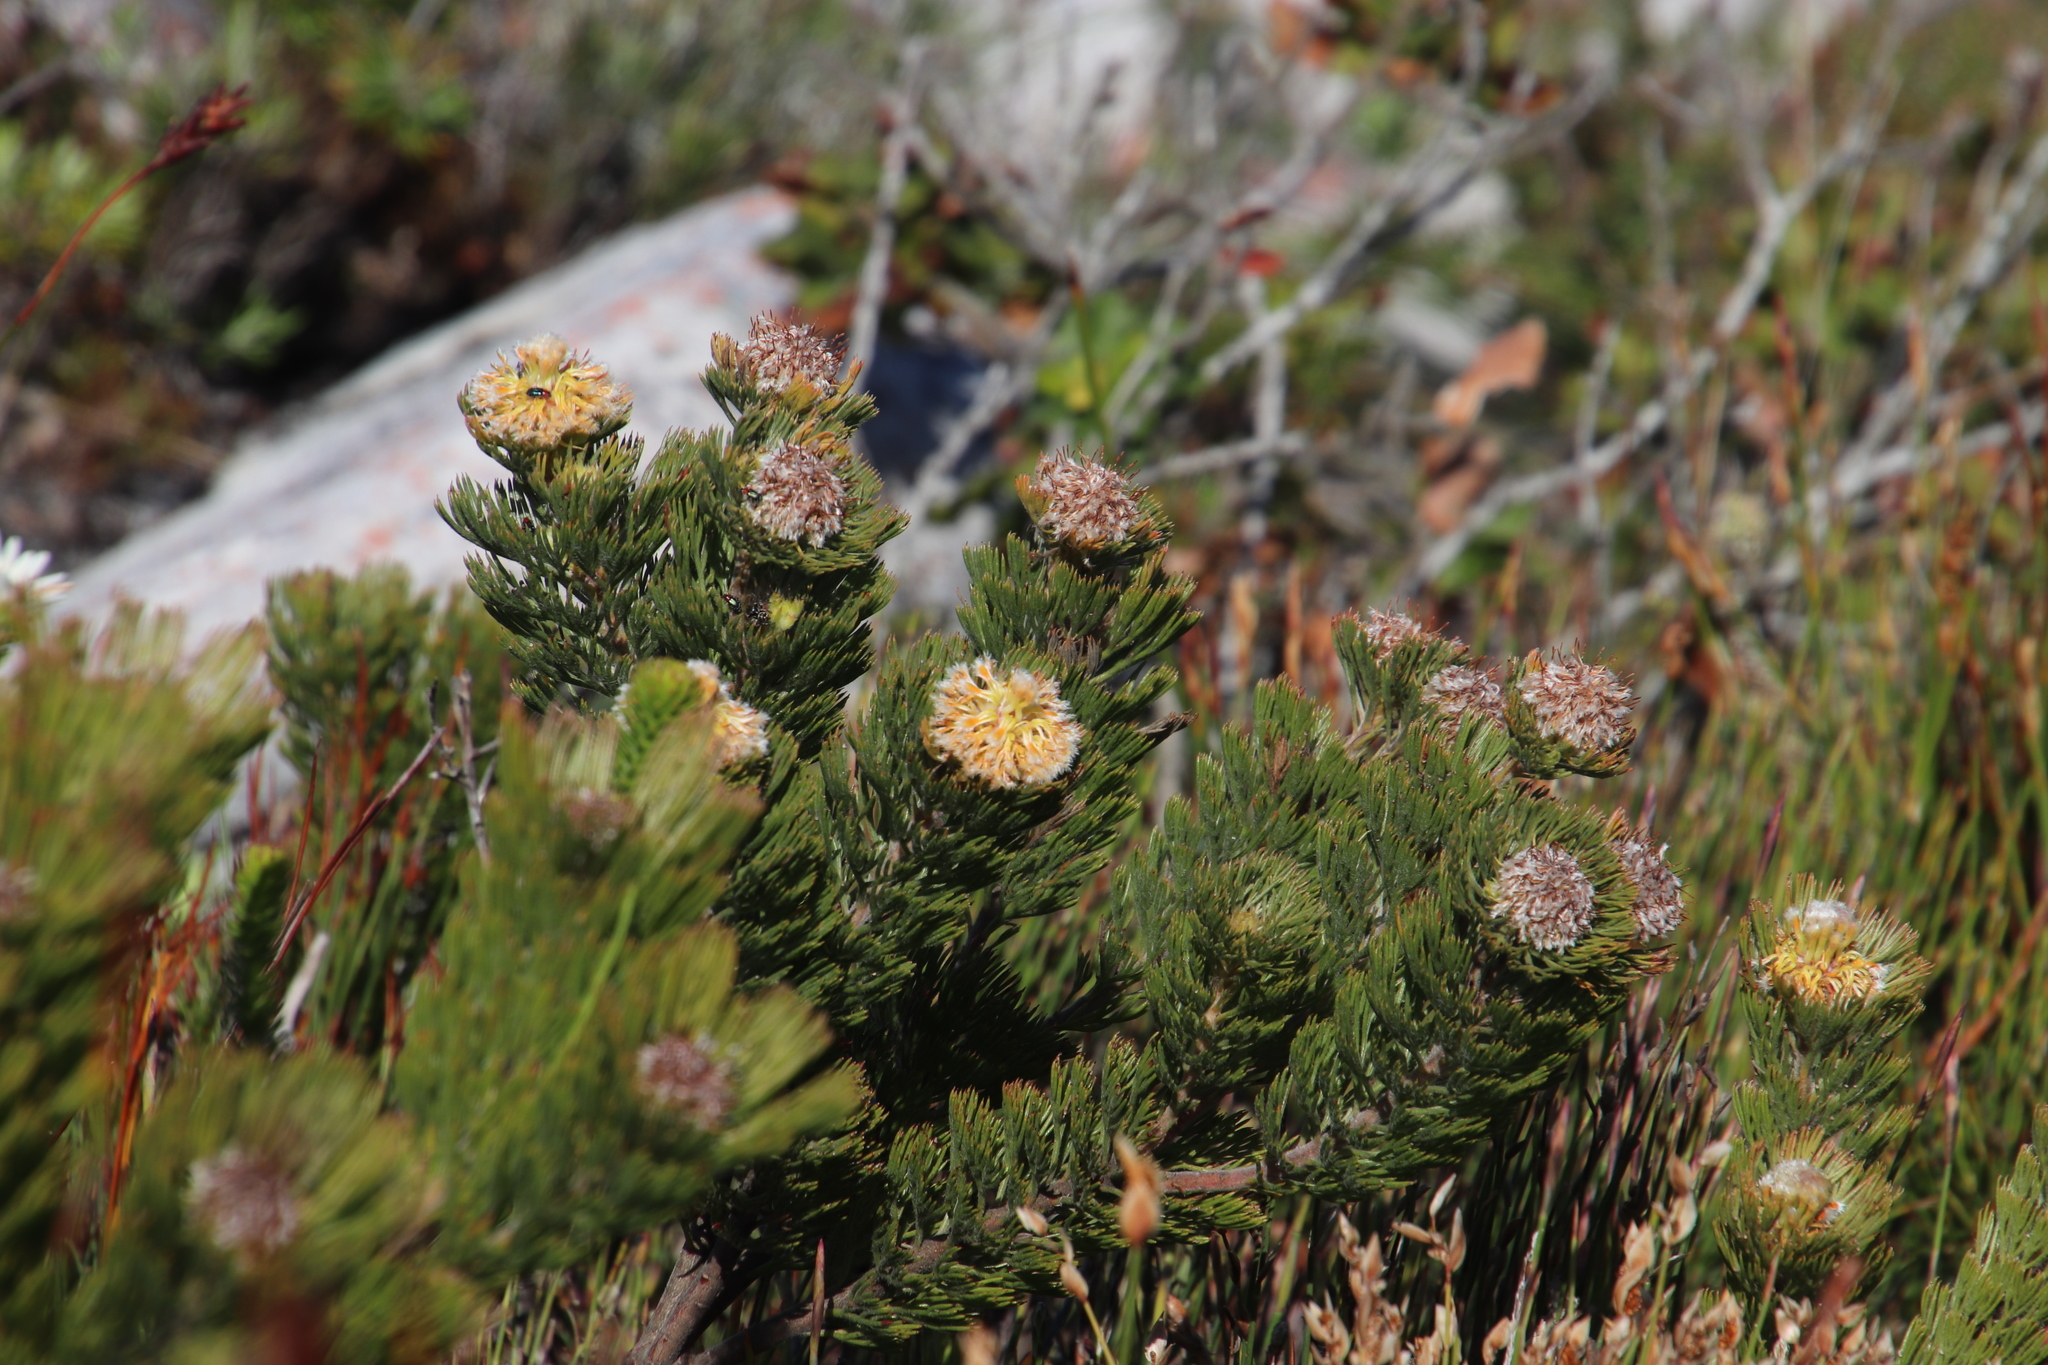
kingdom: Plantae
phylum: Tracheophyta
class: Magnoliopsida
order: Proteales
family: Proteaceae
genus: Serruria
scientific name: Serruria villosa
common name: Golden spiderhead
